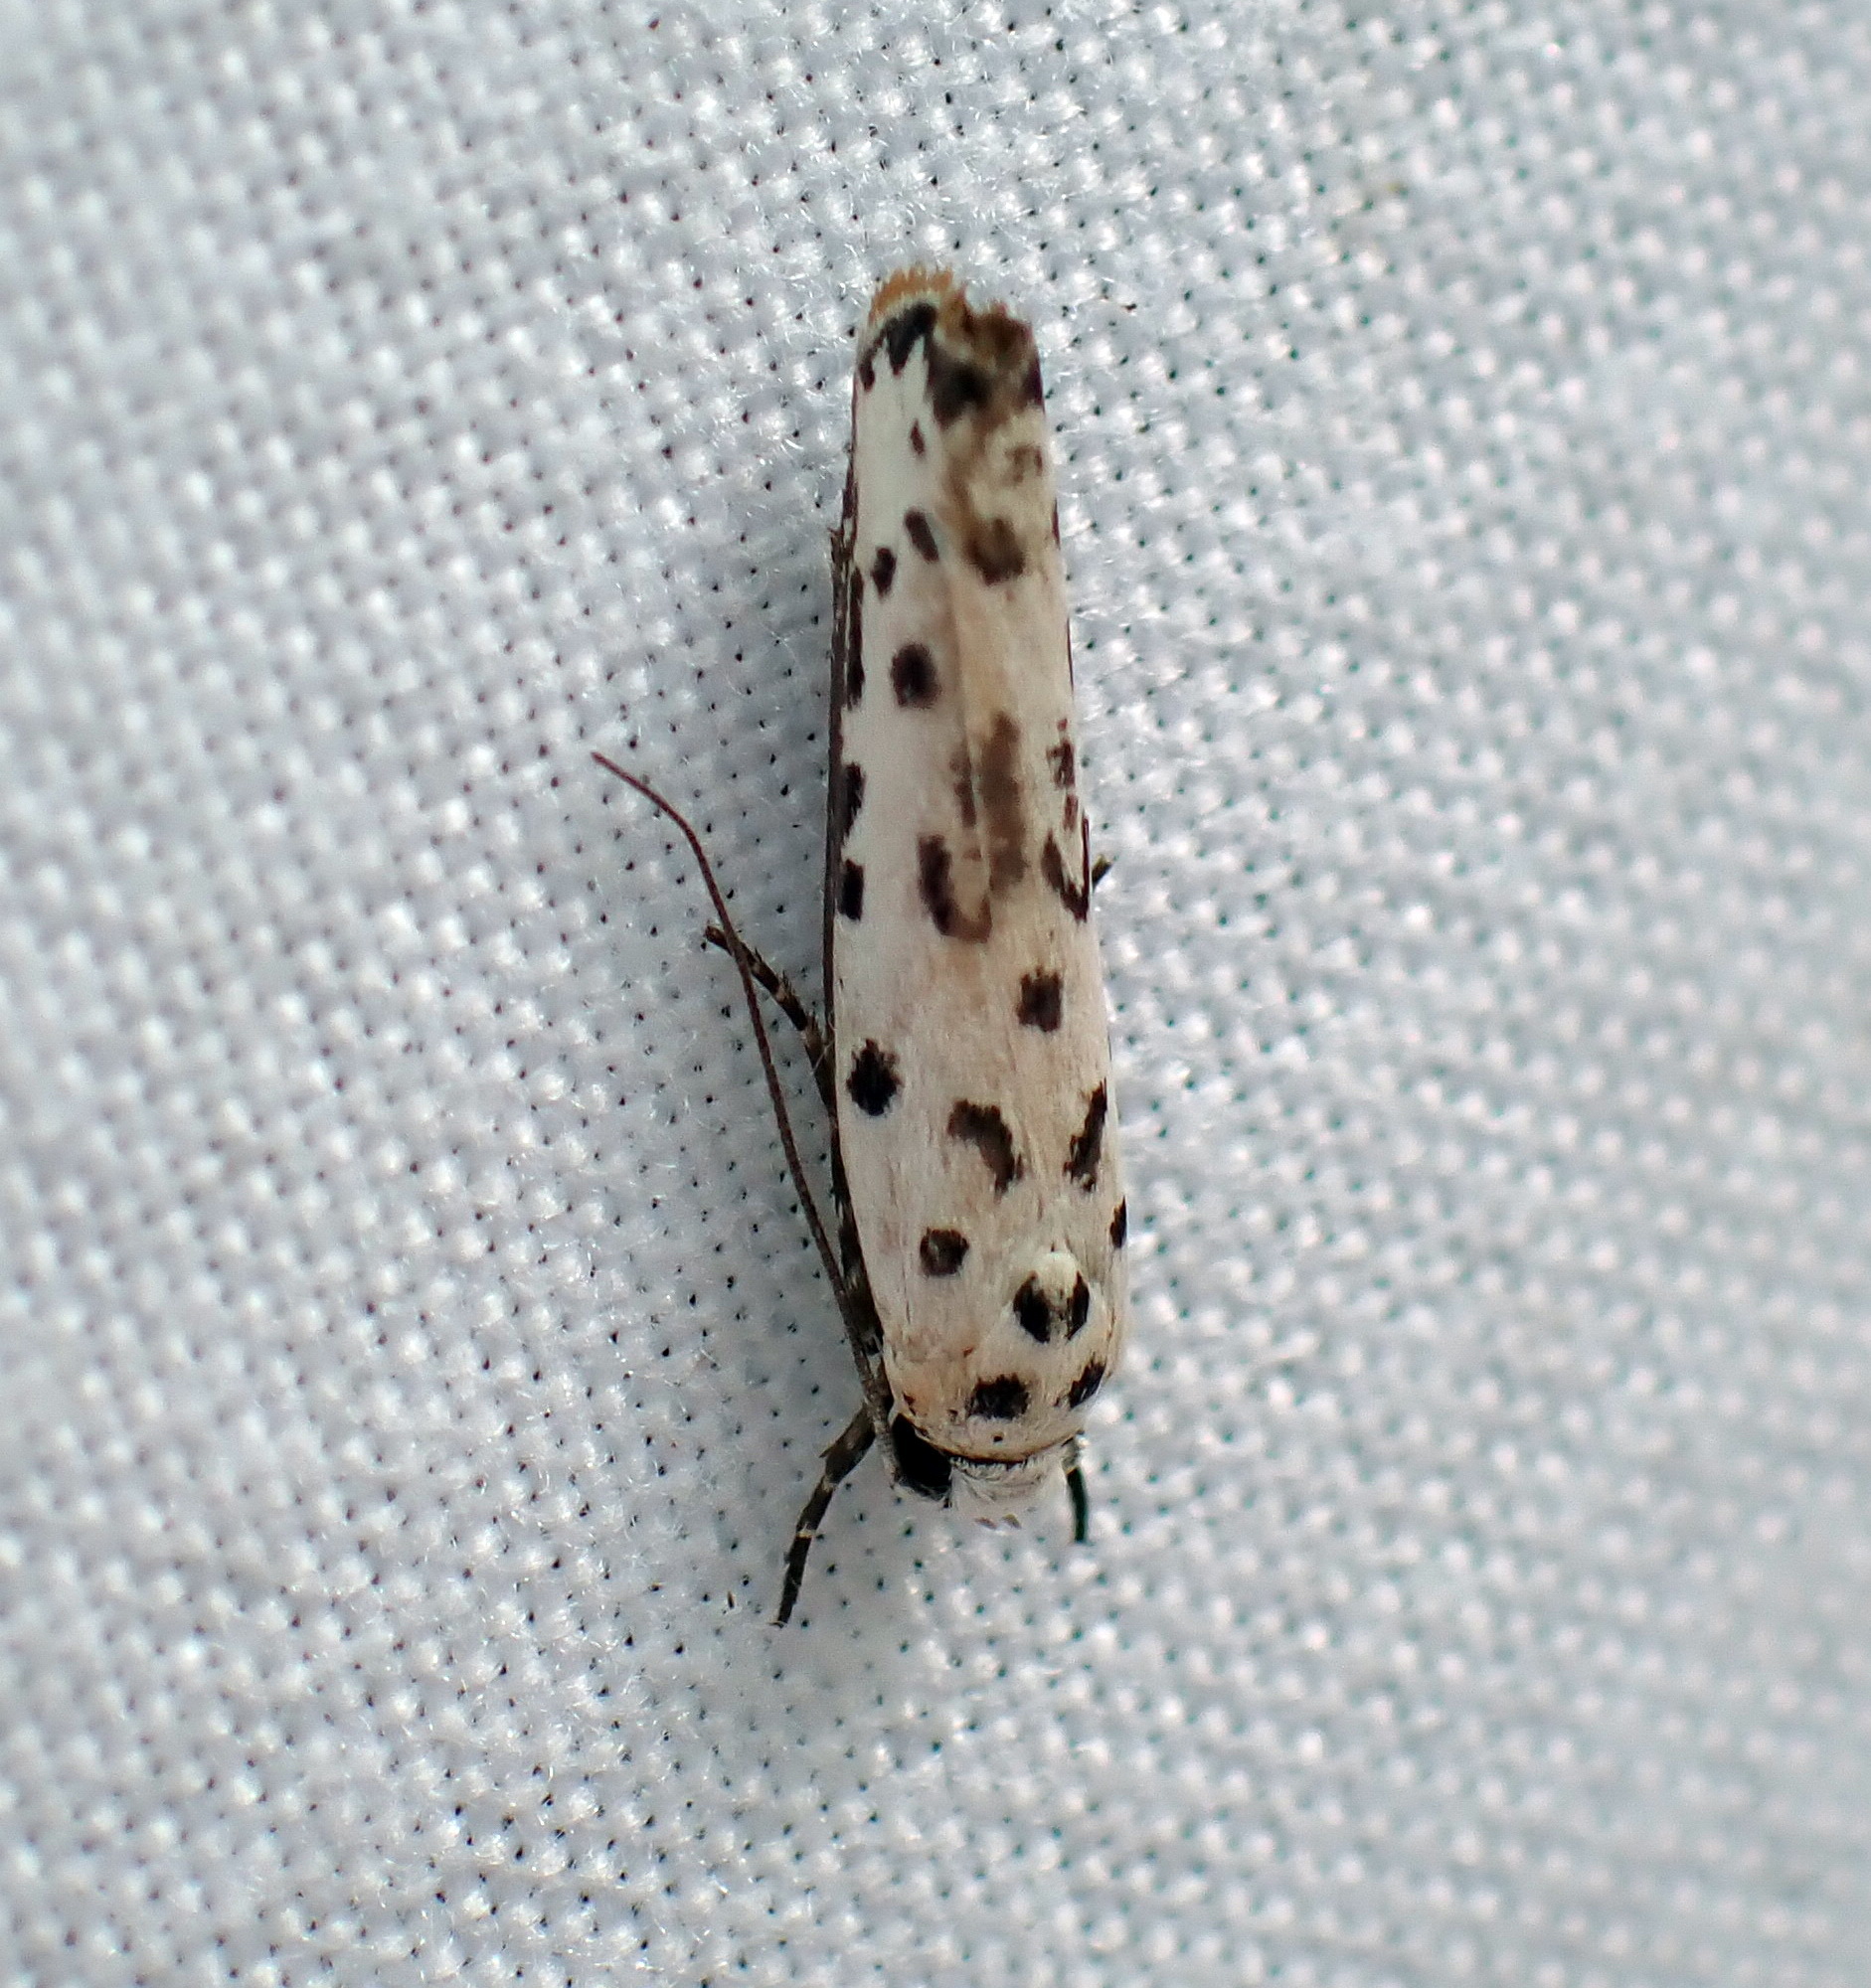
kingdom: Animalia
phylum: Arthropoda
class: Insecta
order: Lepidoptera
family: Ethmiidae
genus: Ethmia
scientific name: Ethmia bittenella
